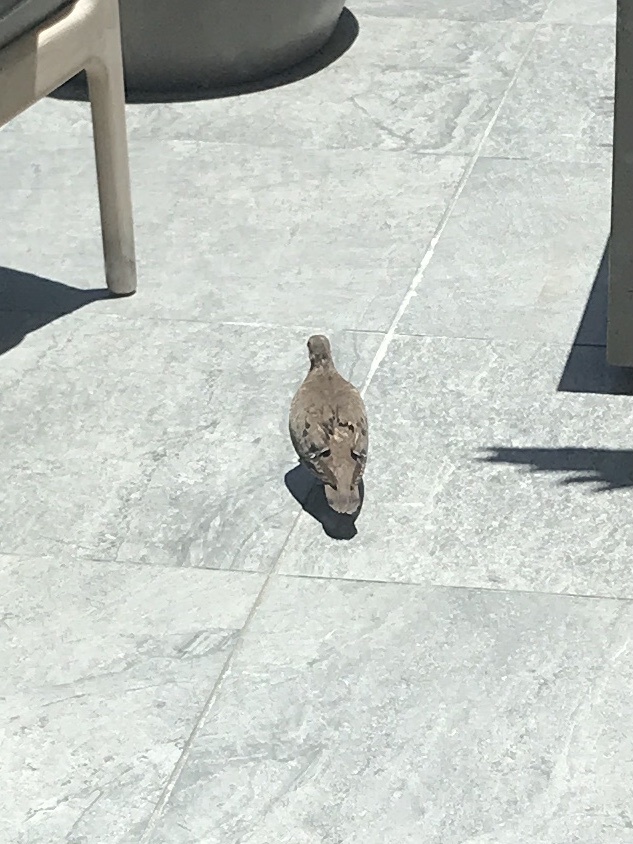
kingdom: Animalia
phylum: Chordata
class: Aves
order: Columbiformes
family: Columbidae
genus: Zenaida
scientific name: Zenaida aurita
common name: Zenaida dove
